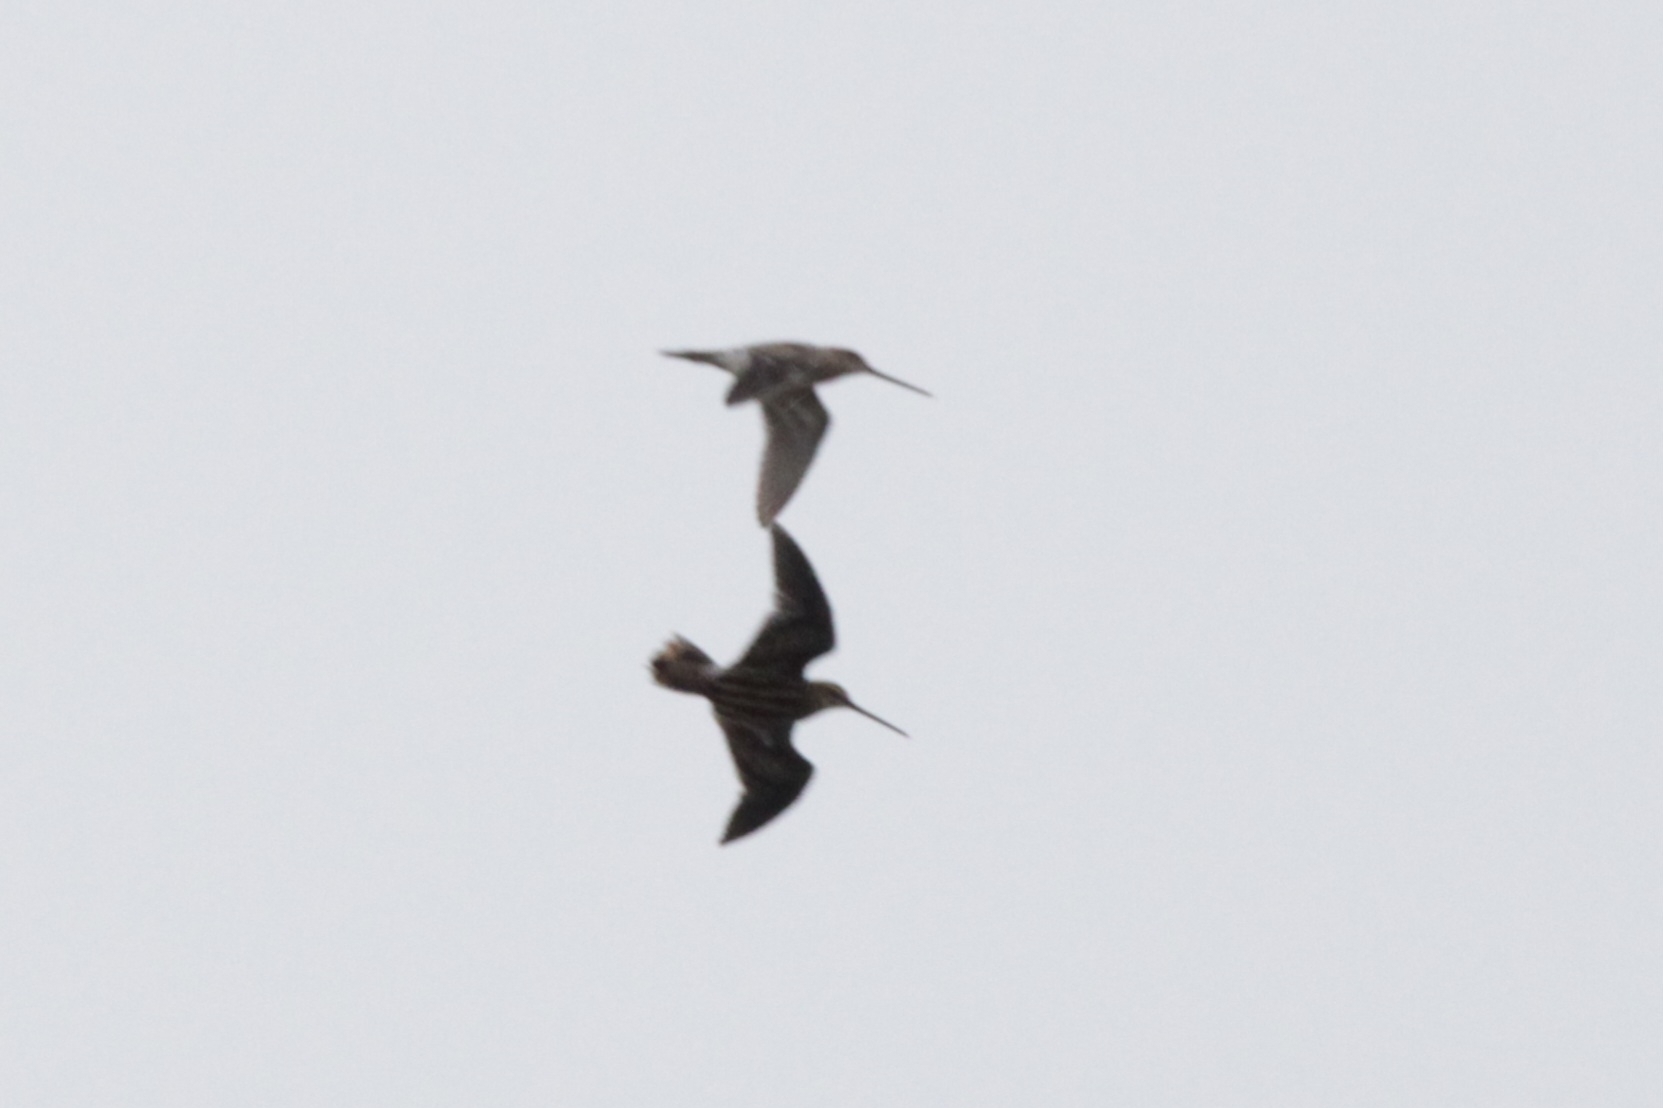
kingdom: Animalia
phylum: Chordata
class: Aves
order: Charadriiformes
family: Scolopacidae
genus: Gallinago
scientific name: Gallinago gallinago
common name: Common snipe
